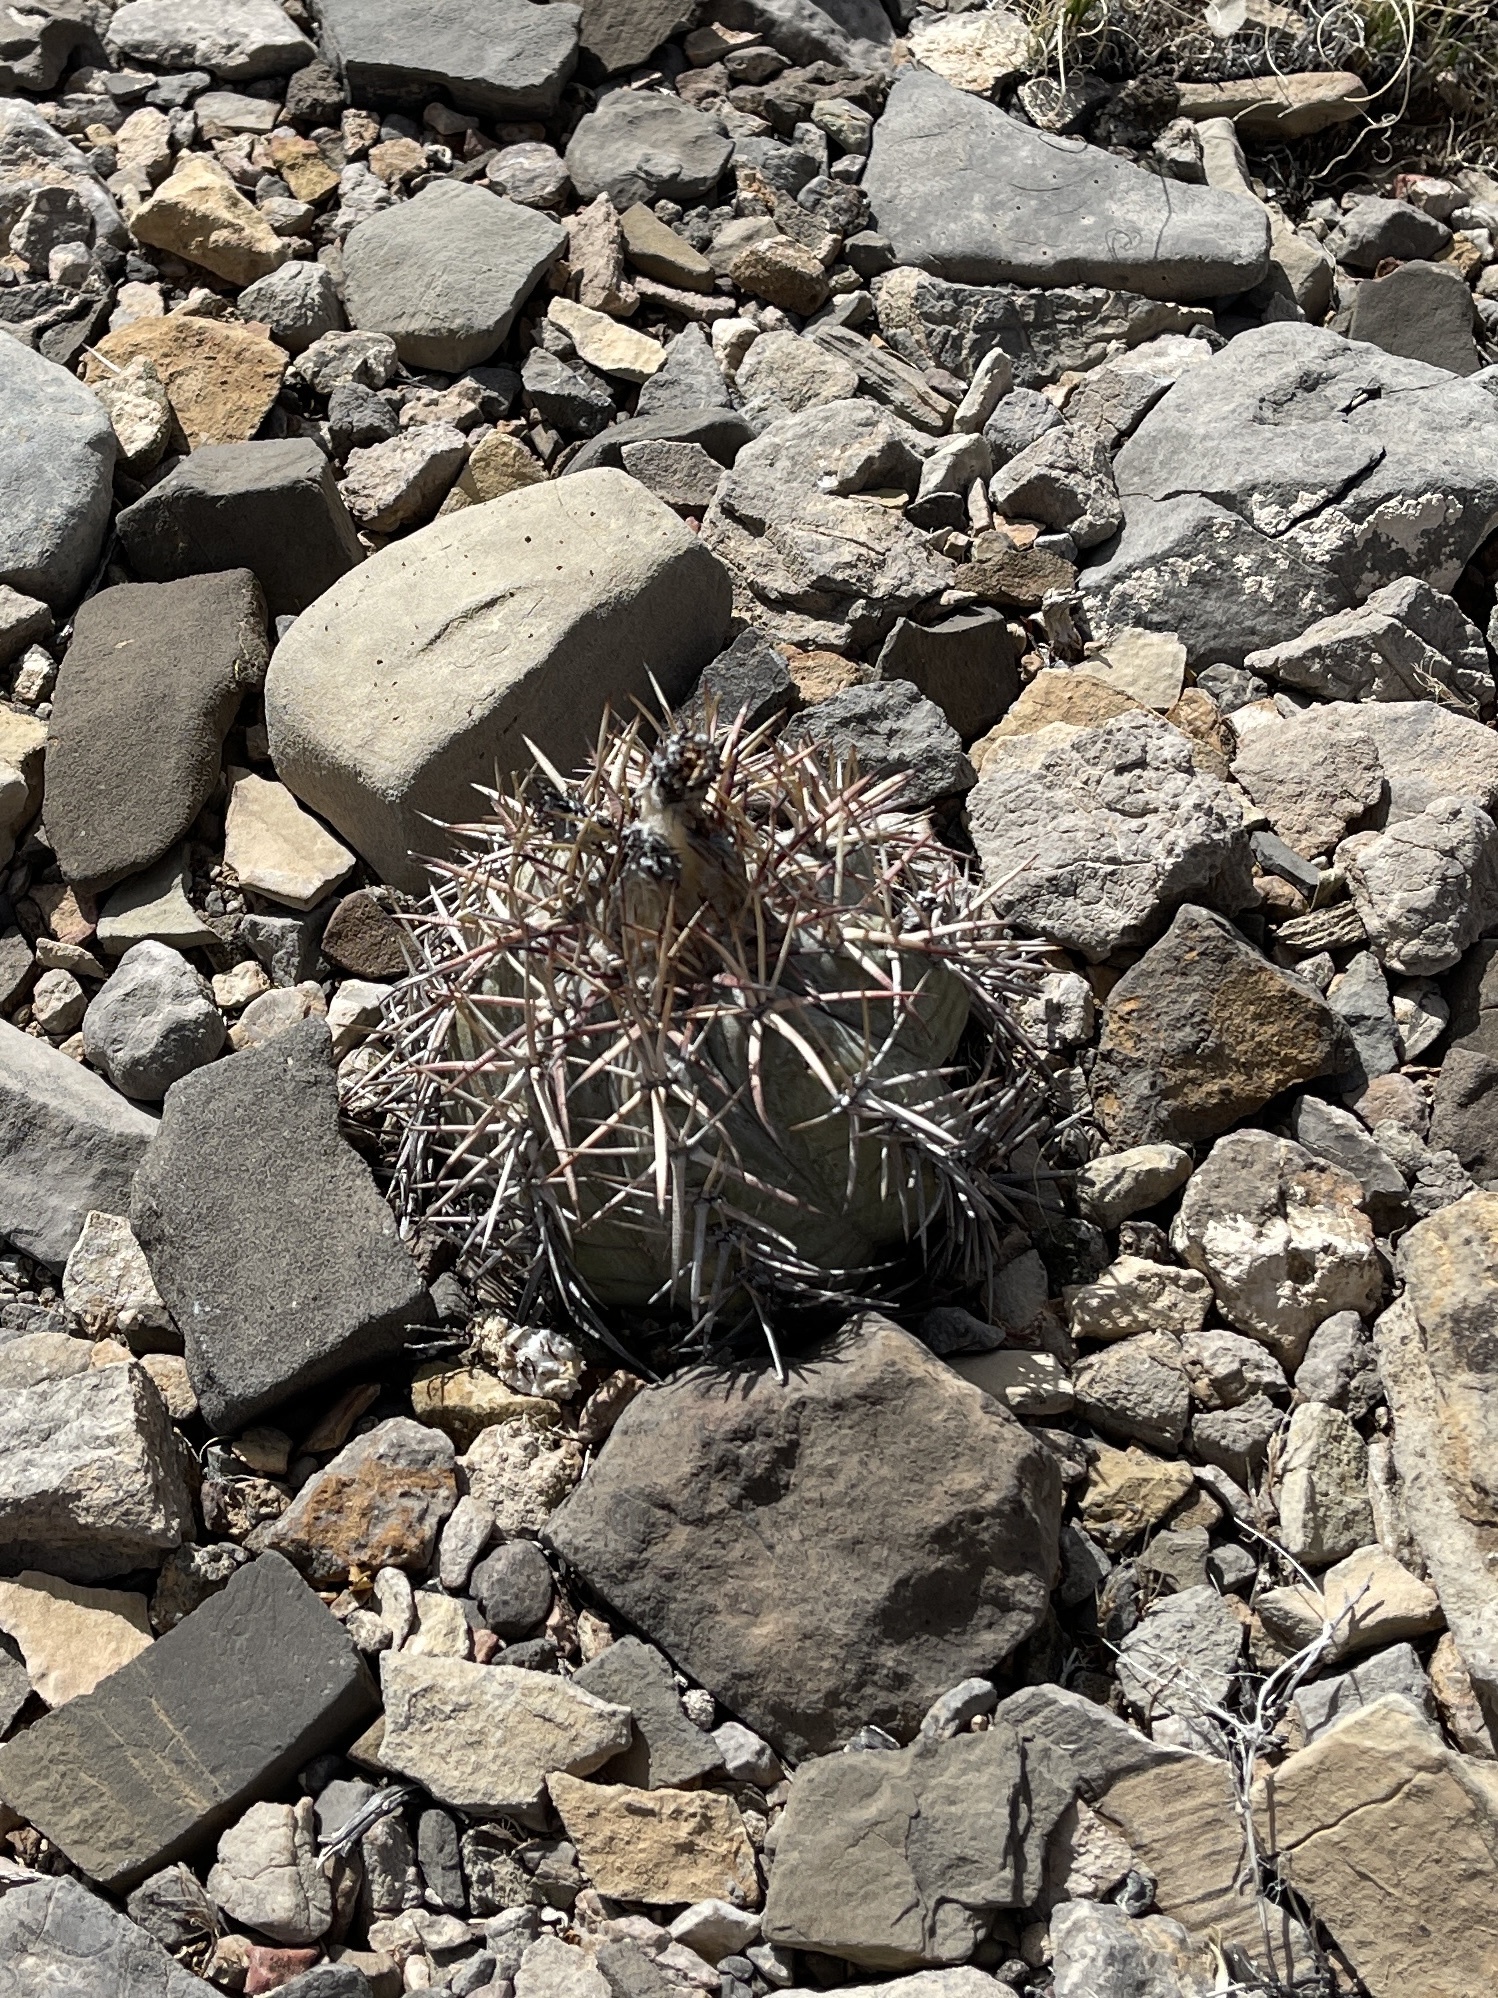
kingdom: Plantae
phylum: Tracheophyta
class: Magnoliopsida
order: Caryophyllales
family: Cactaceae
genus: Echinocactus
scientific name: Echinocactus horizonthalonius
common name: Devilshead
